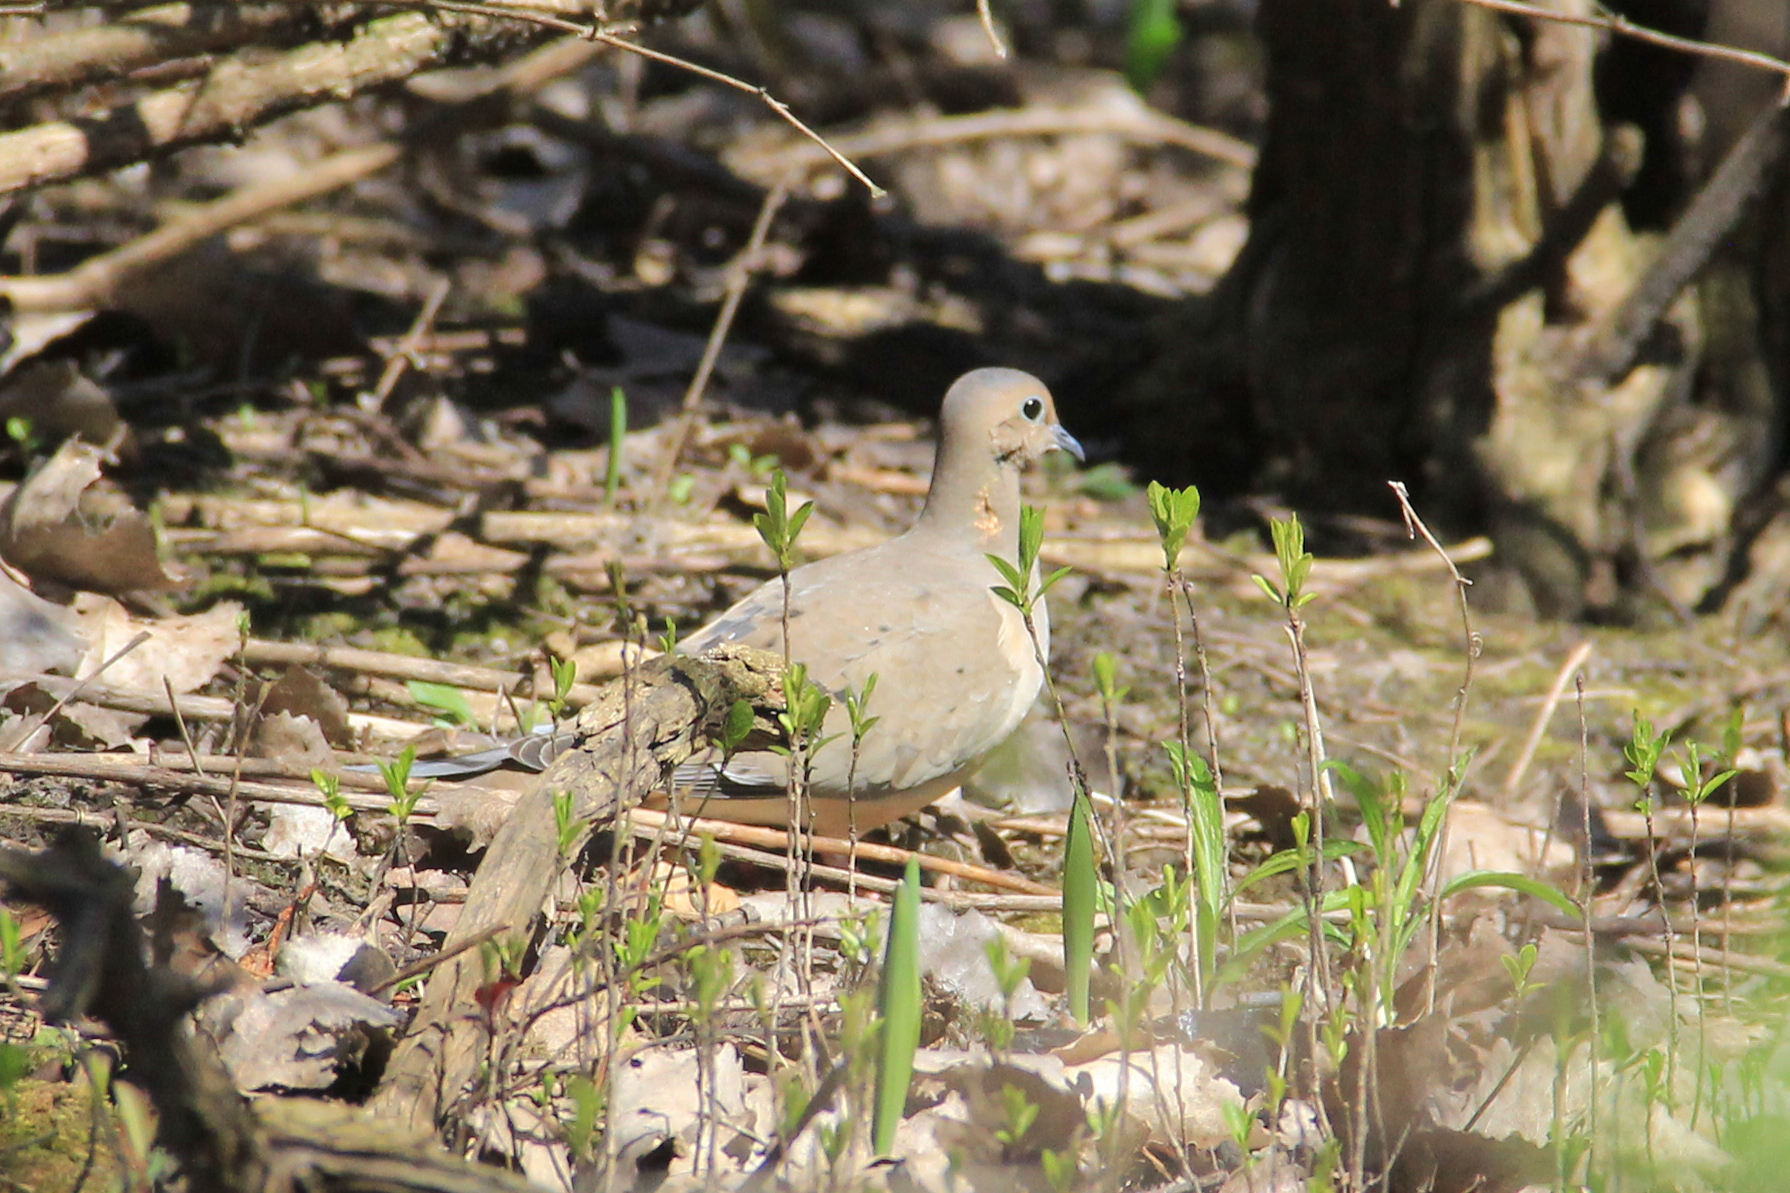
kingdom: Animalia
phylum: Chordata
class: Aves
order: Columbiformes
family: Columbidae
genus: Zenaida
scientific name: Zenaida macroura
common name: Mourning dove
